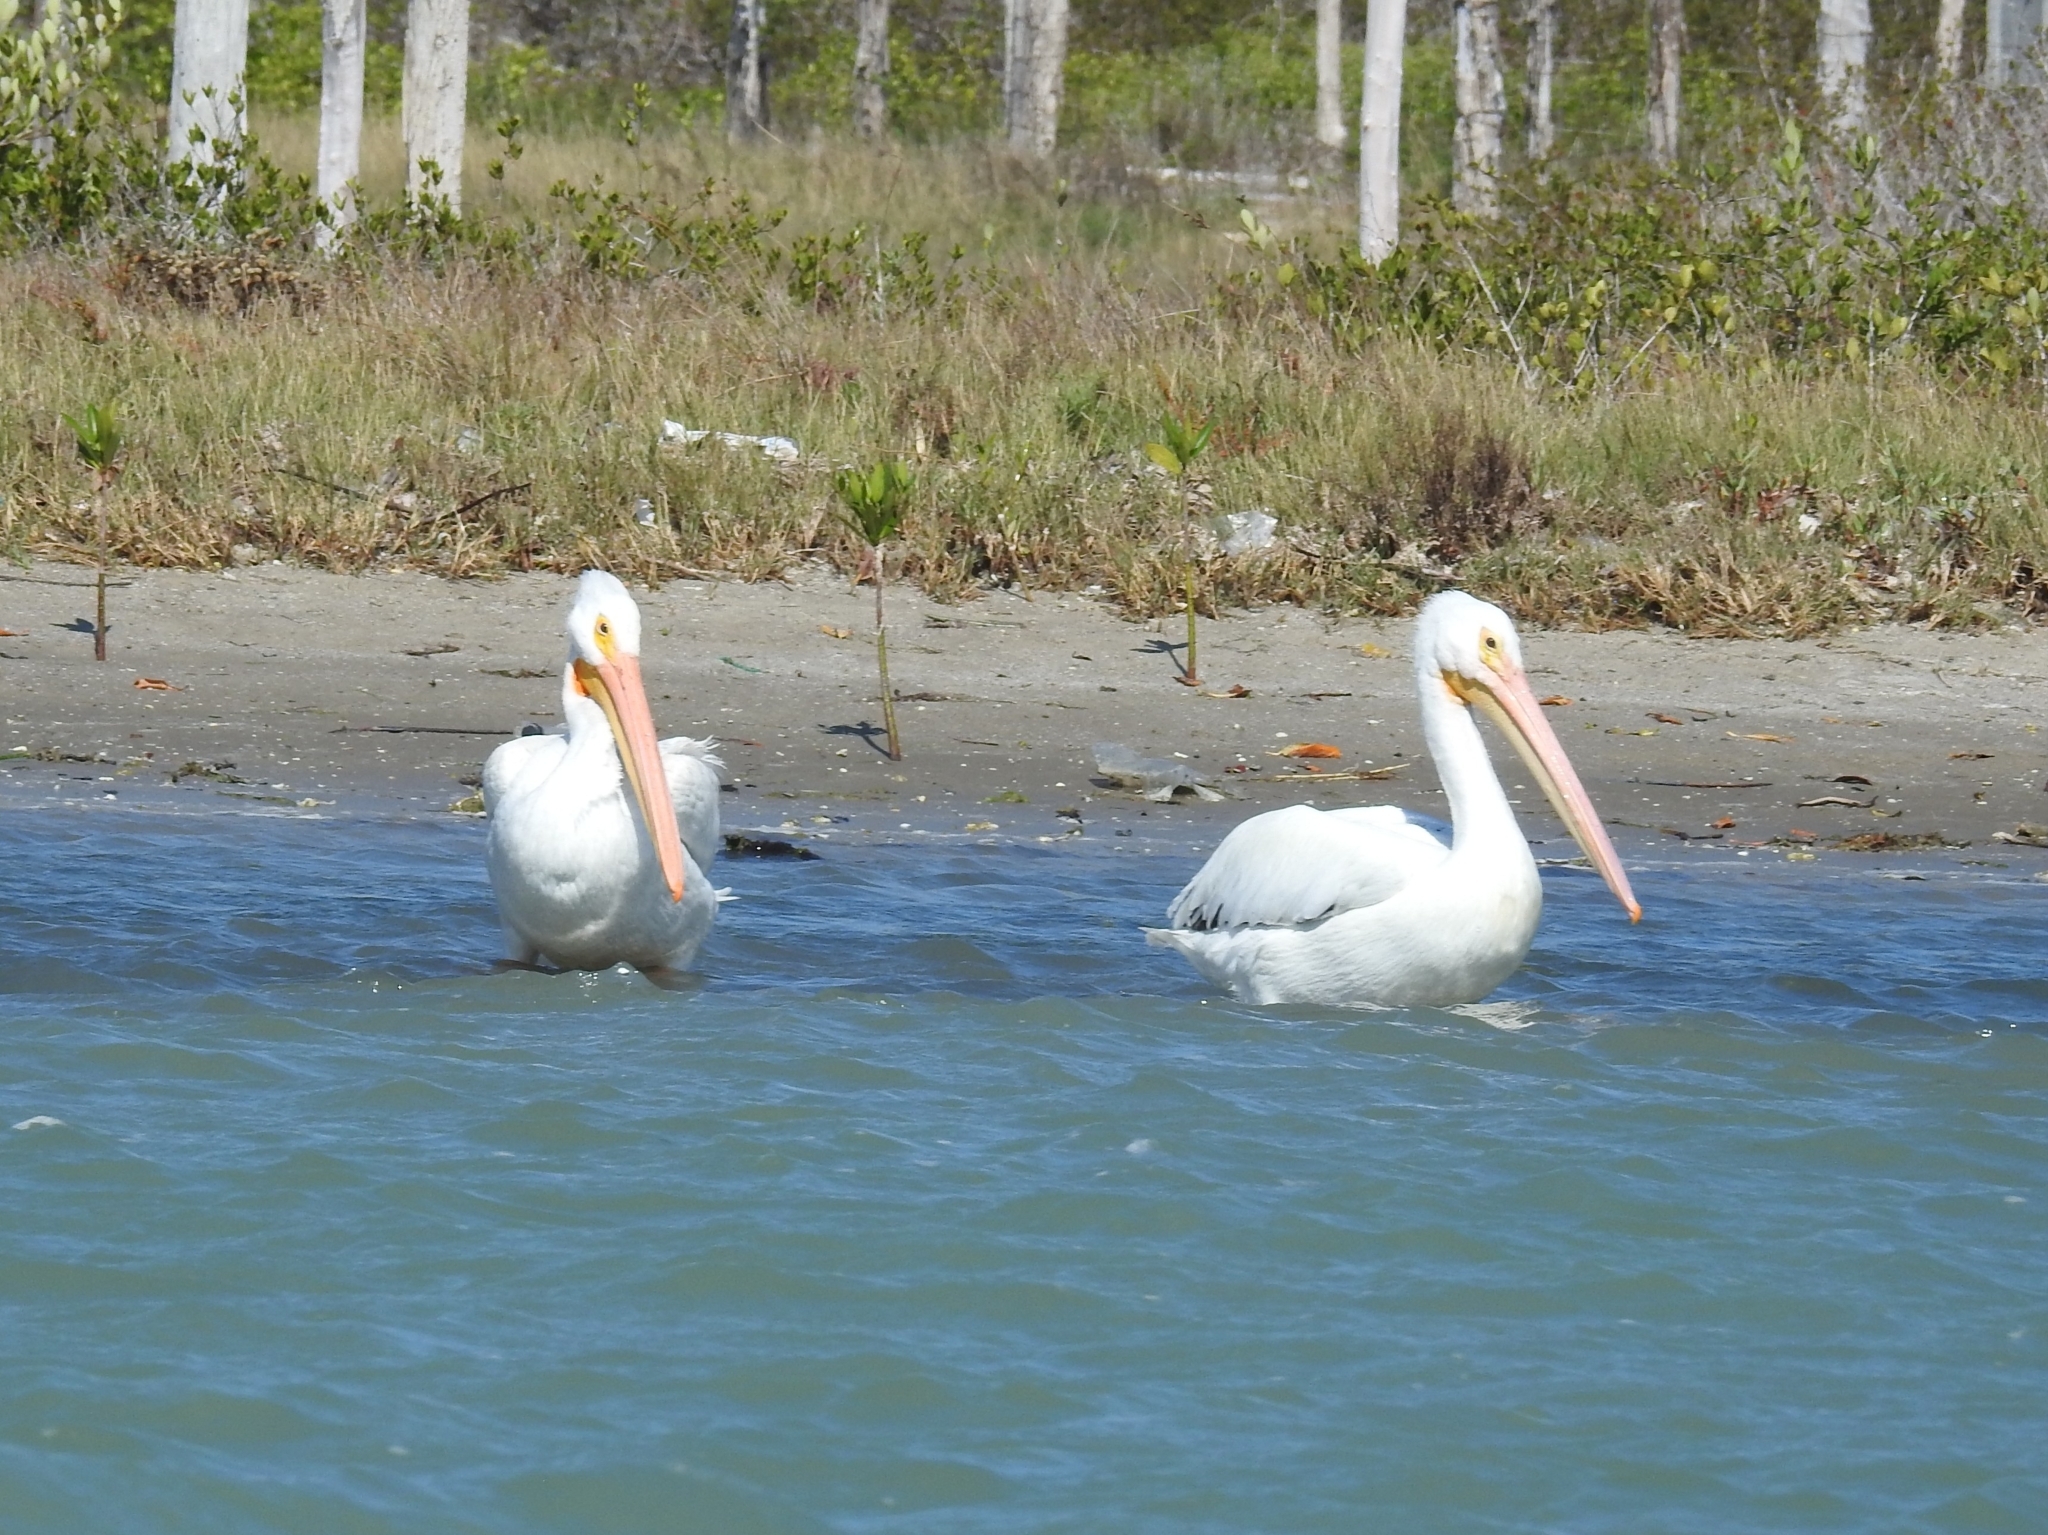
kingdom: Animalia
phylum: Chordata
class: Aves
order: Pelecaniformes
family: Pelecanidae
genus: Pelecanus
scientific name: Pelecanus erythrorhynchos
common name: American white pelican
